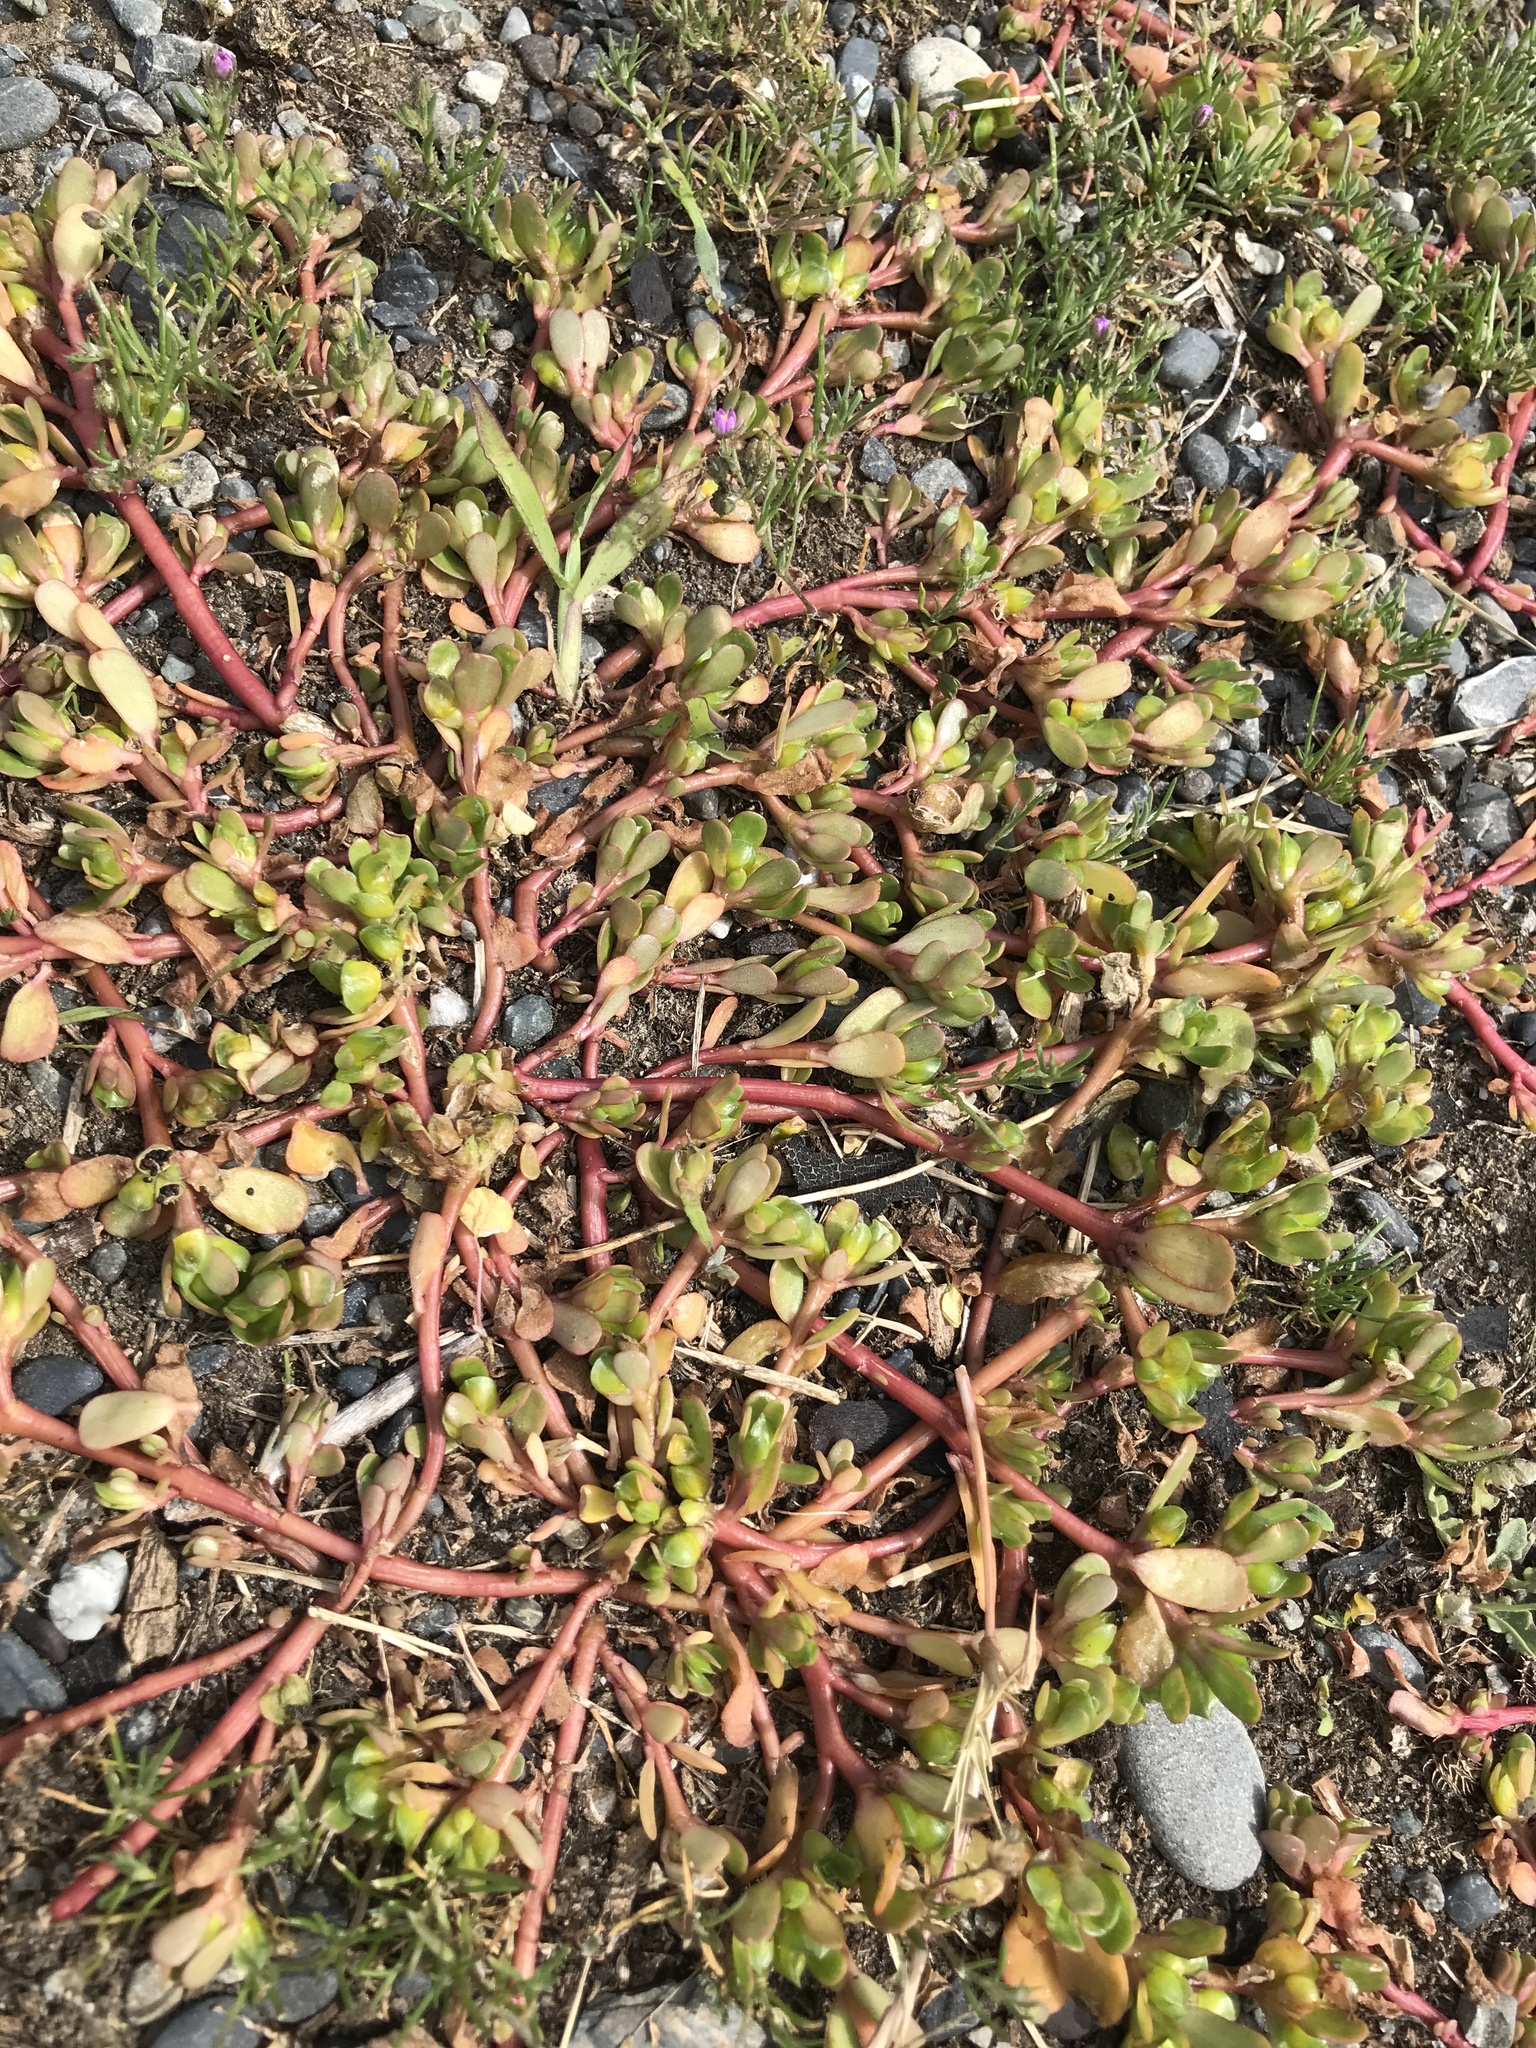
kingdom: Plantae
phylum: Tracheophyta
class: Magnoliopsida
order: Caryophyllales
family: Portulacaceae
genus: Portulaca
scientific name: Portulaca oleracea
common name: Common purslane
